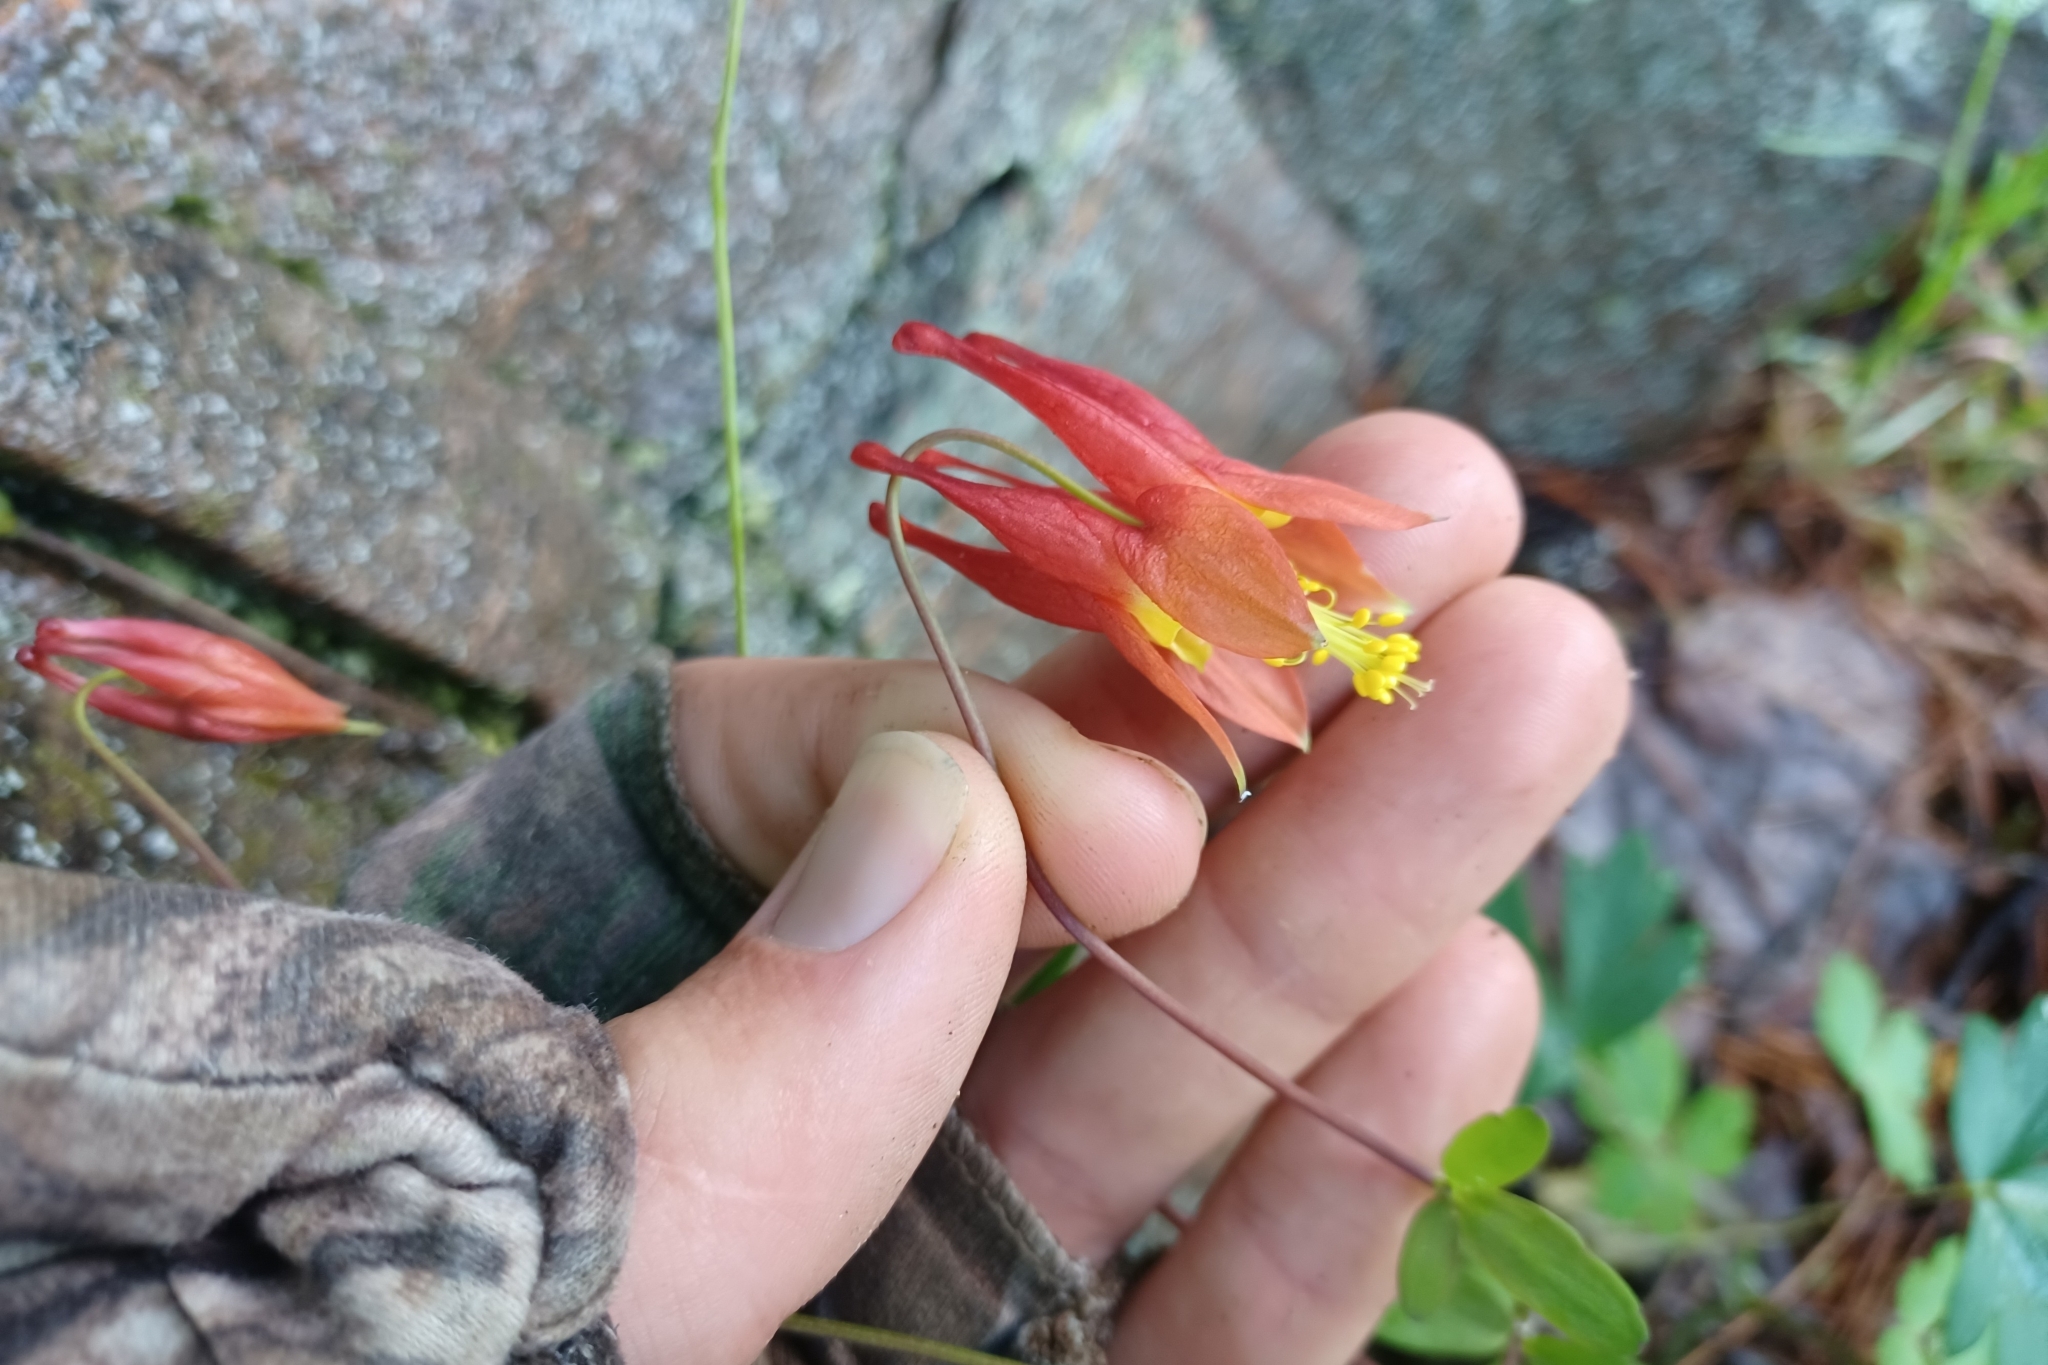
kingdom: Plantae
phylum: Tracheophyta
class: Magnoliopsida
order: Ranunculales
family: Ranunculaceae
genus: Aquilegia
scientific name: Aquilegia canadensis
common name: American columbine
